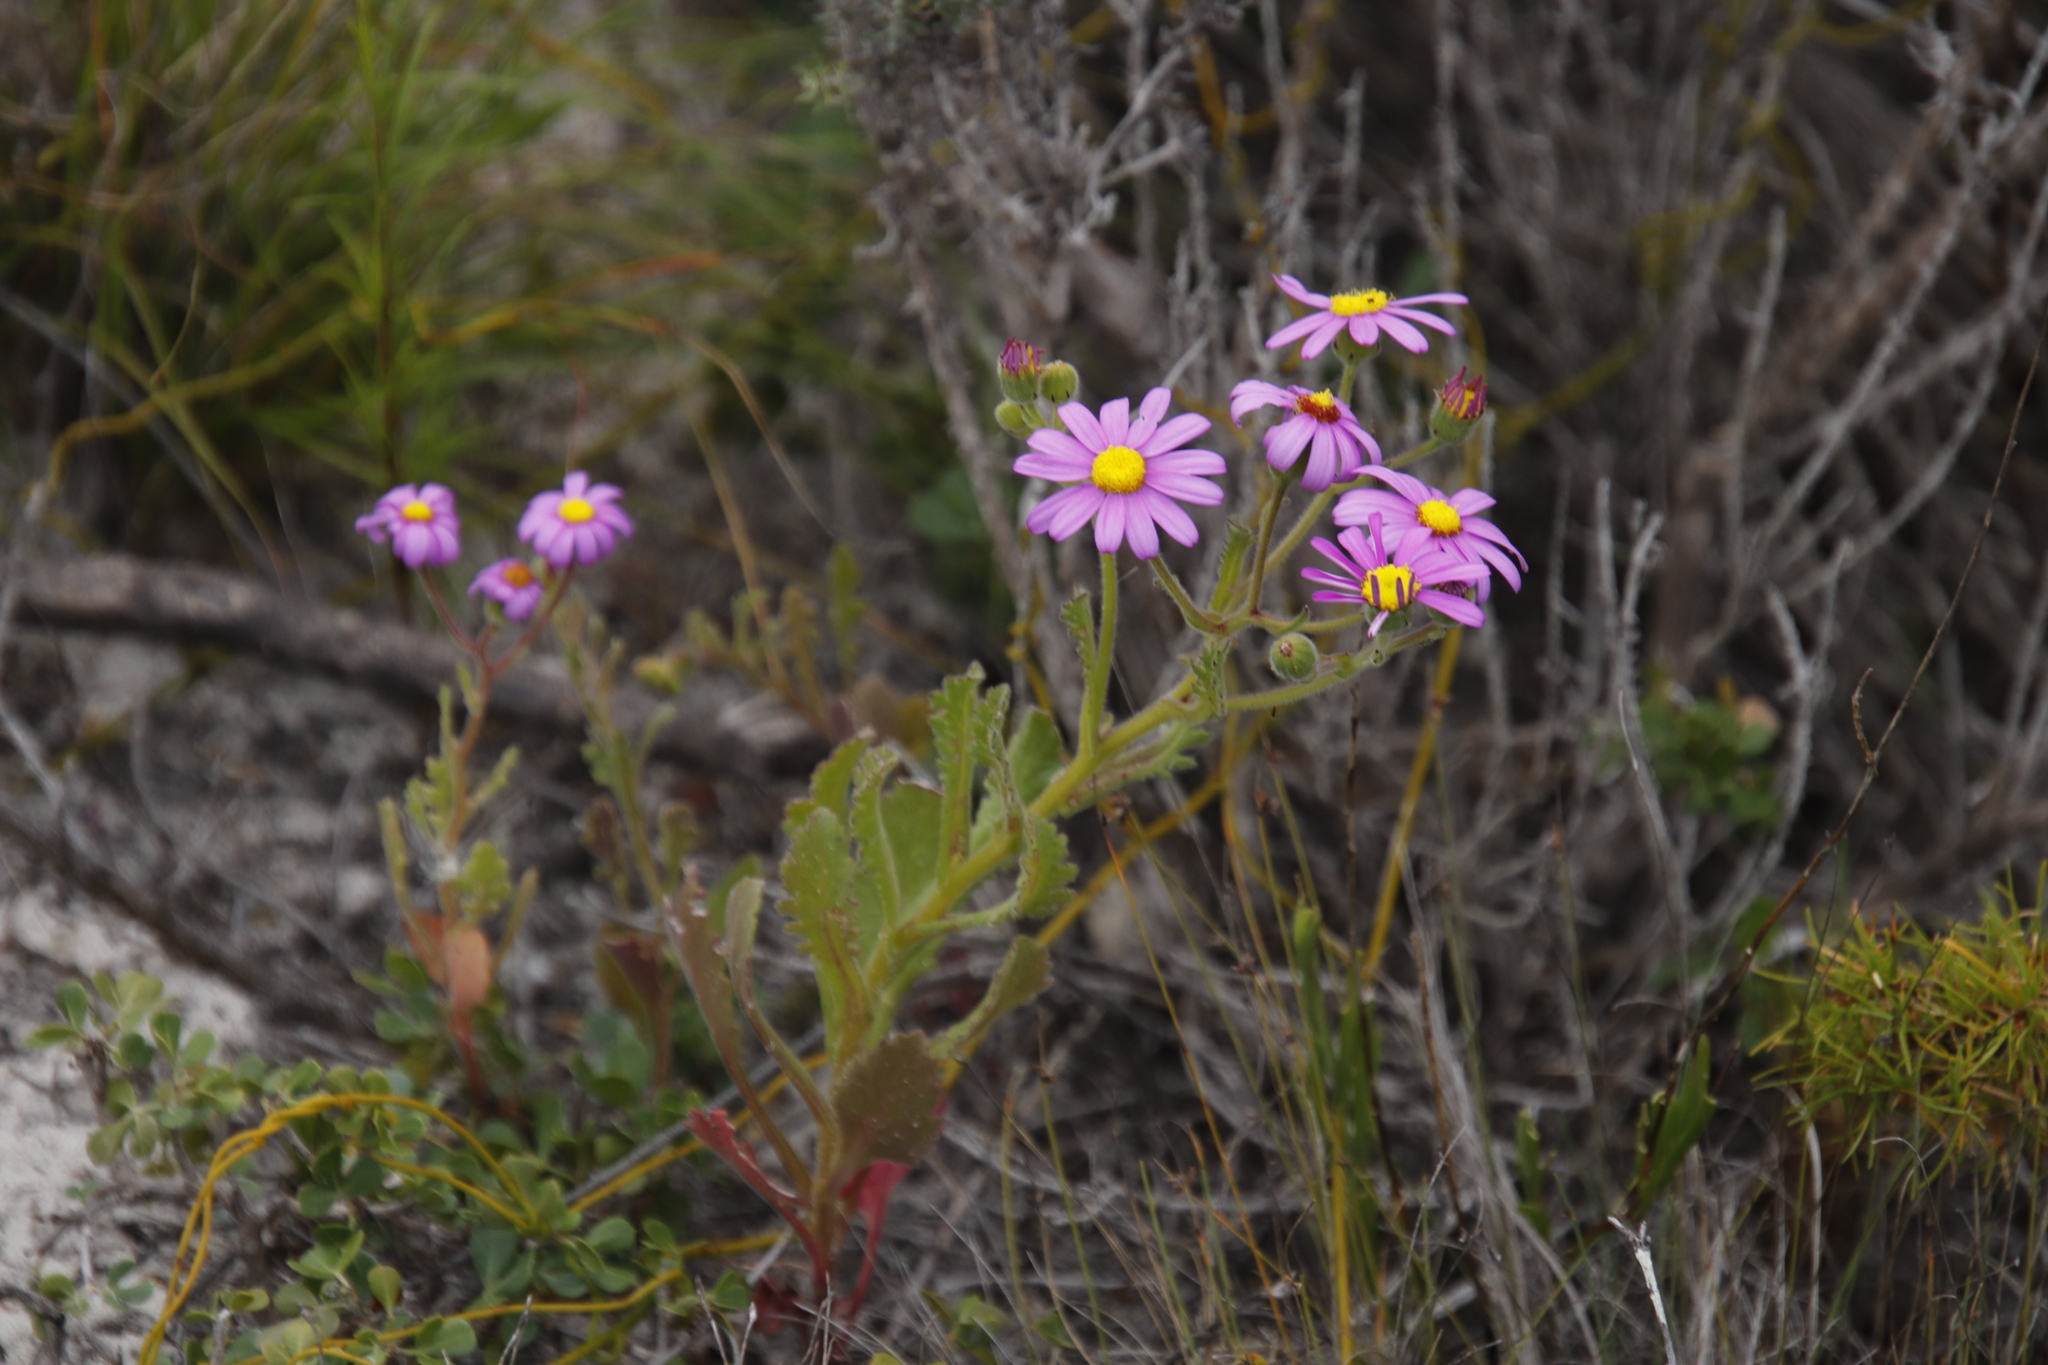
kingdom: Plantae
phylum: Tracheophyta
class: Magnoliopsida
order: Asterales
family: Asteraceae
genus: Senecio
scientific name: Senecio arenarius
